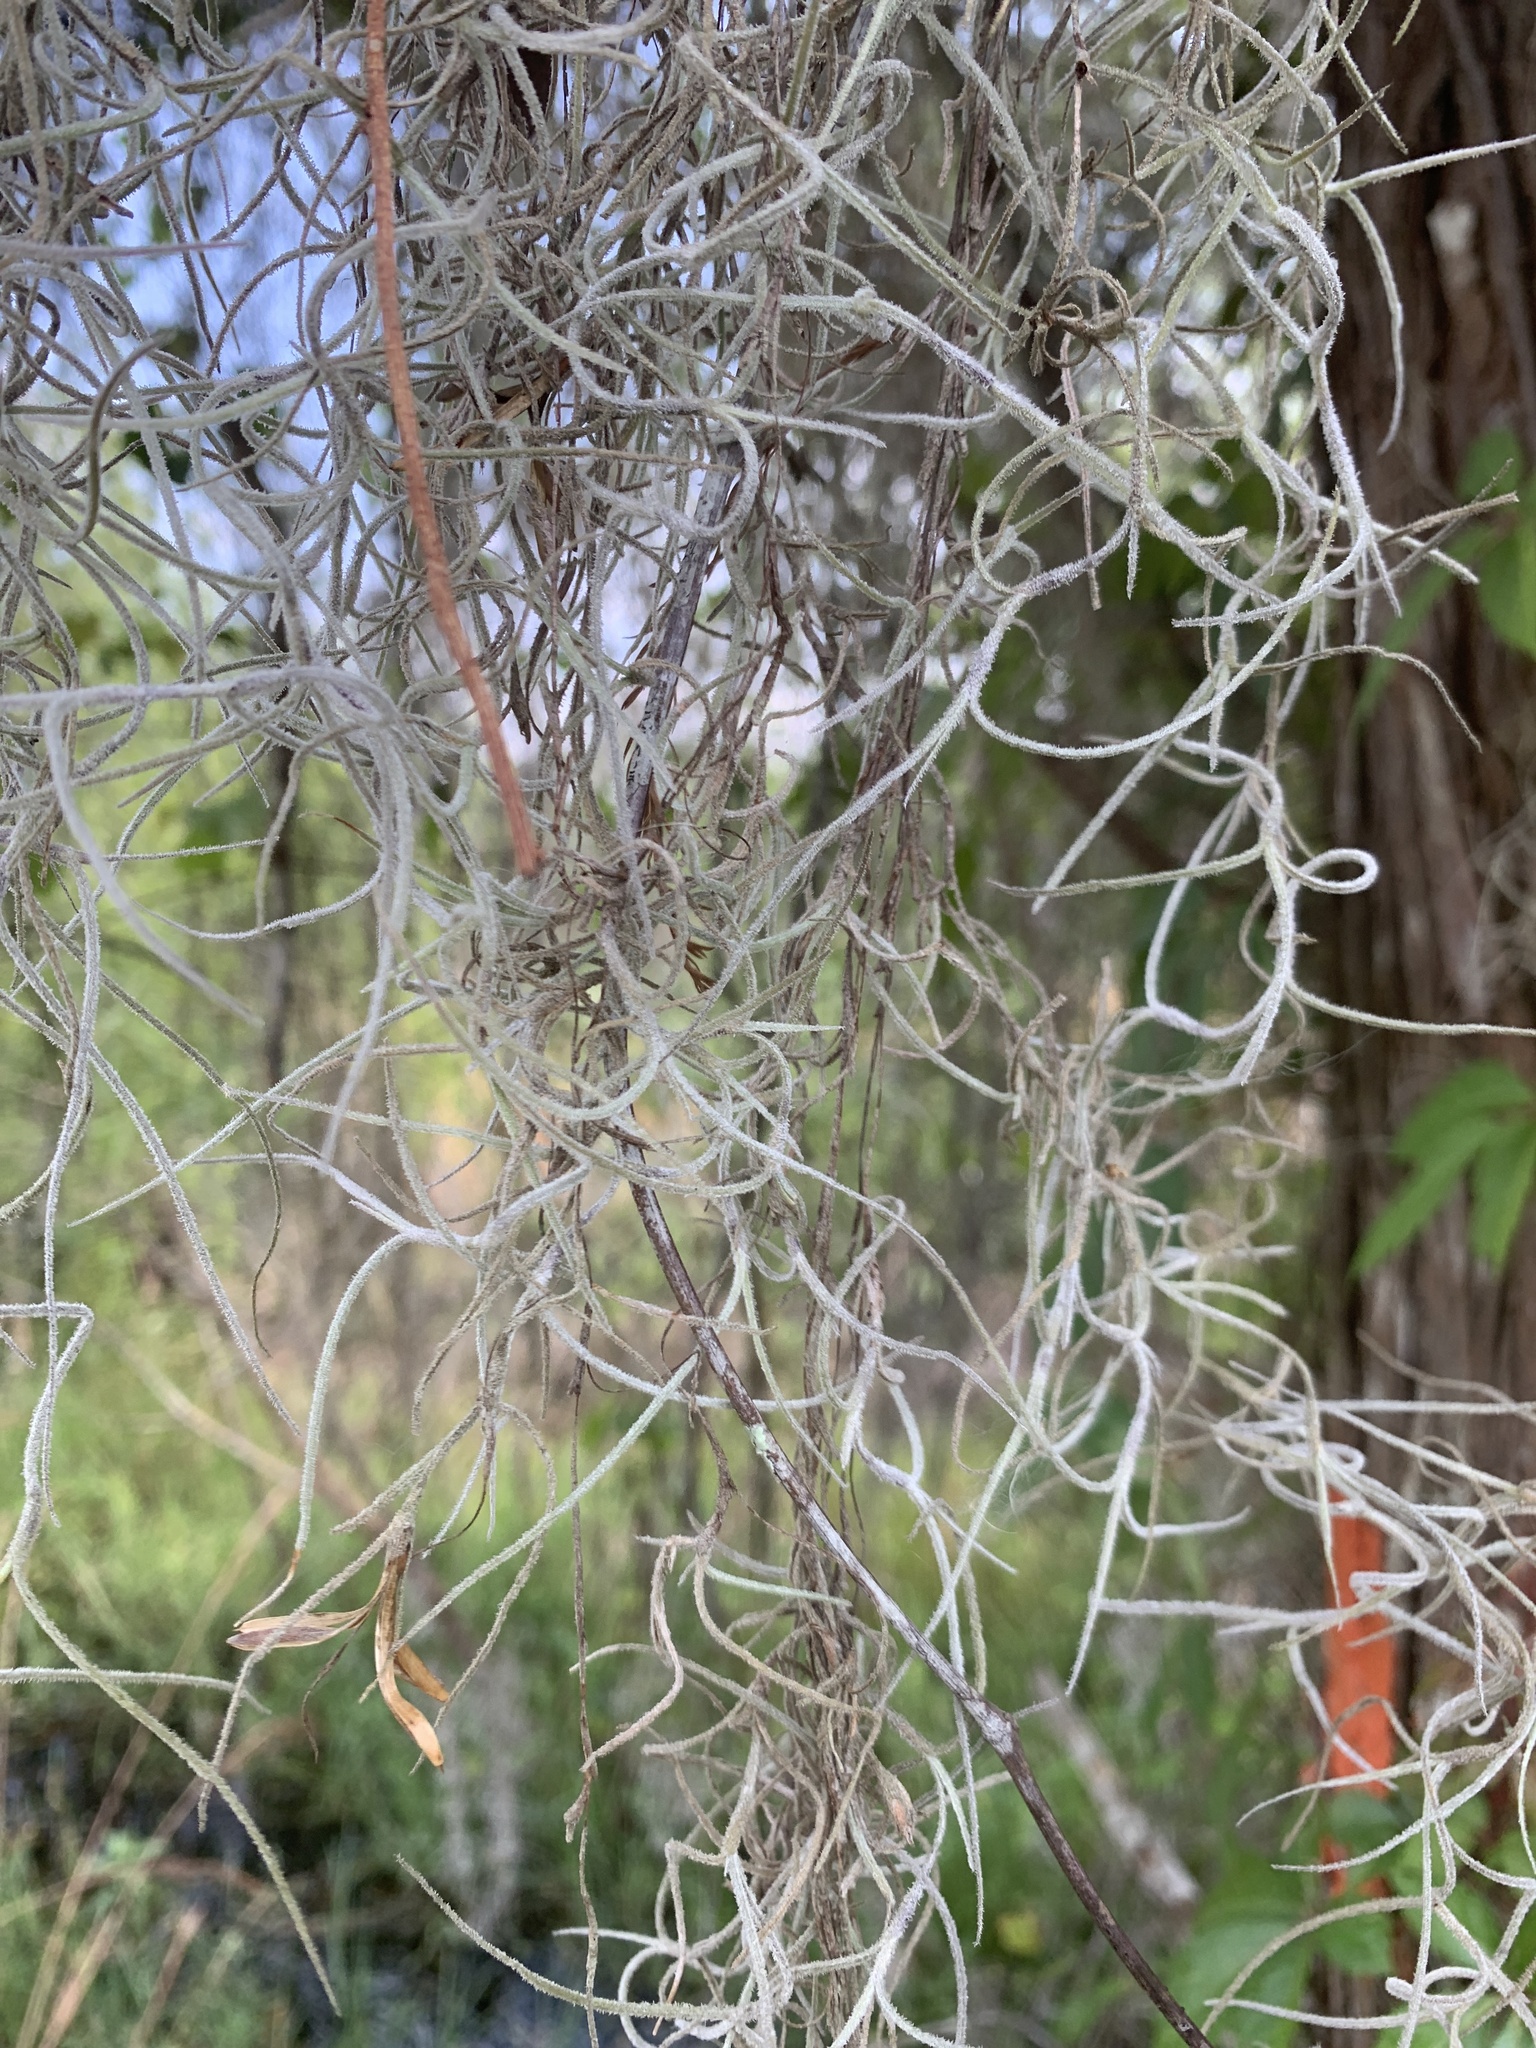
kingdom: Plantae
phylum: Tracheophyta
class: Liliopsida
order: Poales
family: Bromeliaceae
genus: Tillandsia
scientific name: Tillandsia usneoides
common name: Spanish moss
